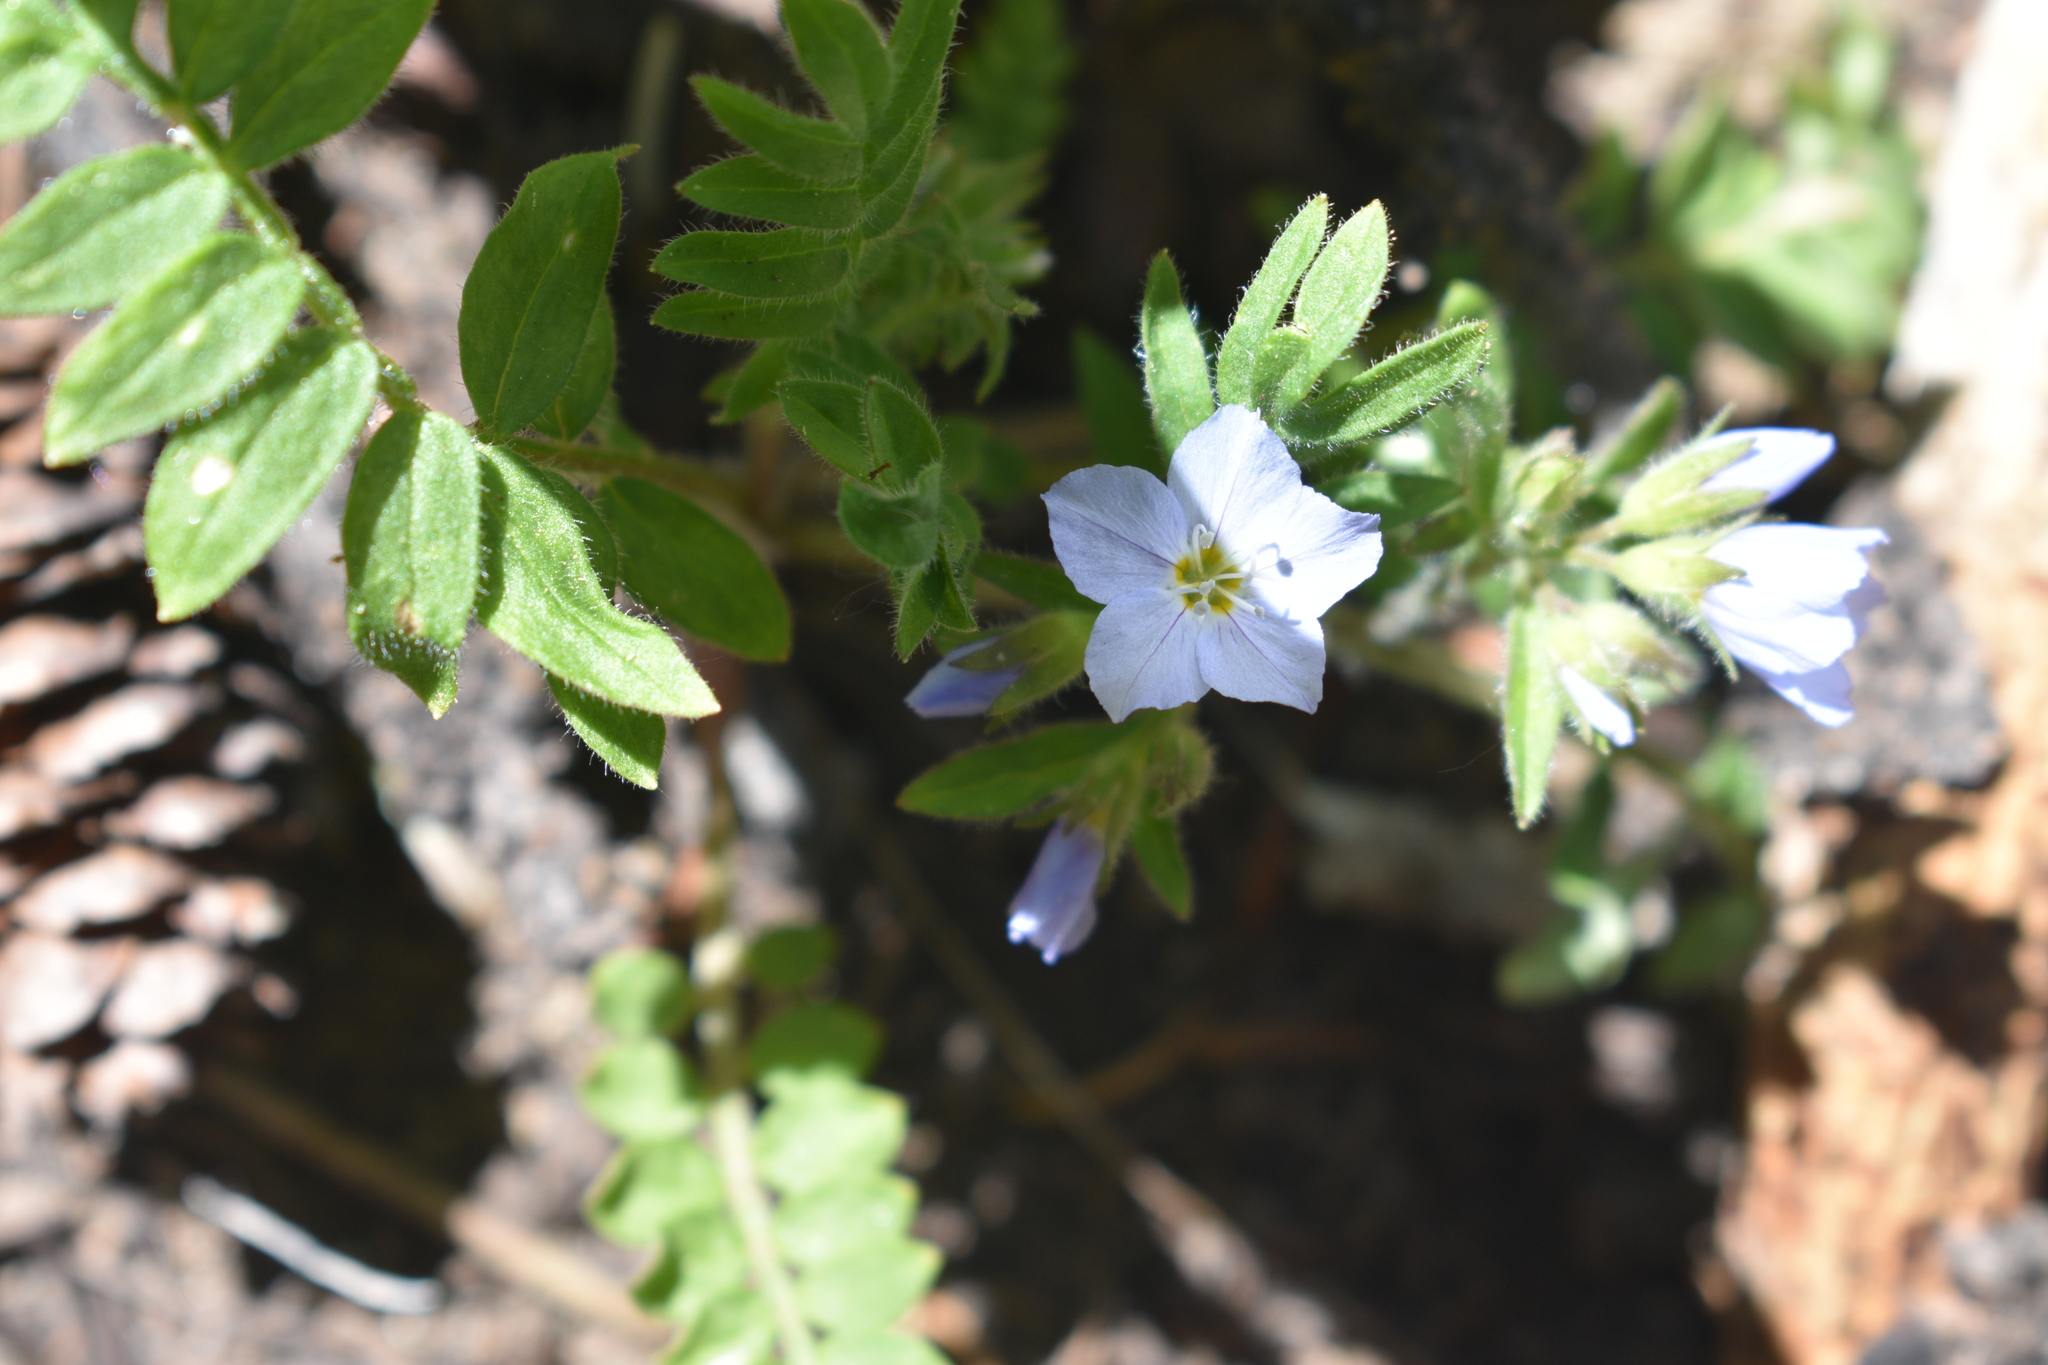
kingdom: Plantae
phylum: Tracheophyta
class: Magnoliopsida
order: Ericales
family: Polemoniaceae
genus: Polemonium
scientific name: Polemonium pulcherrimum
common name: Short jacob's-ladder
